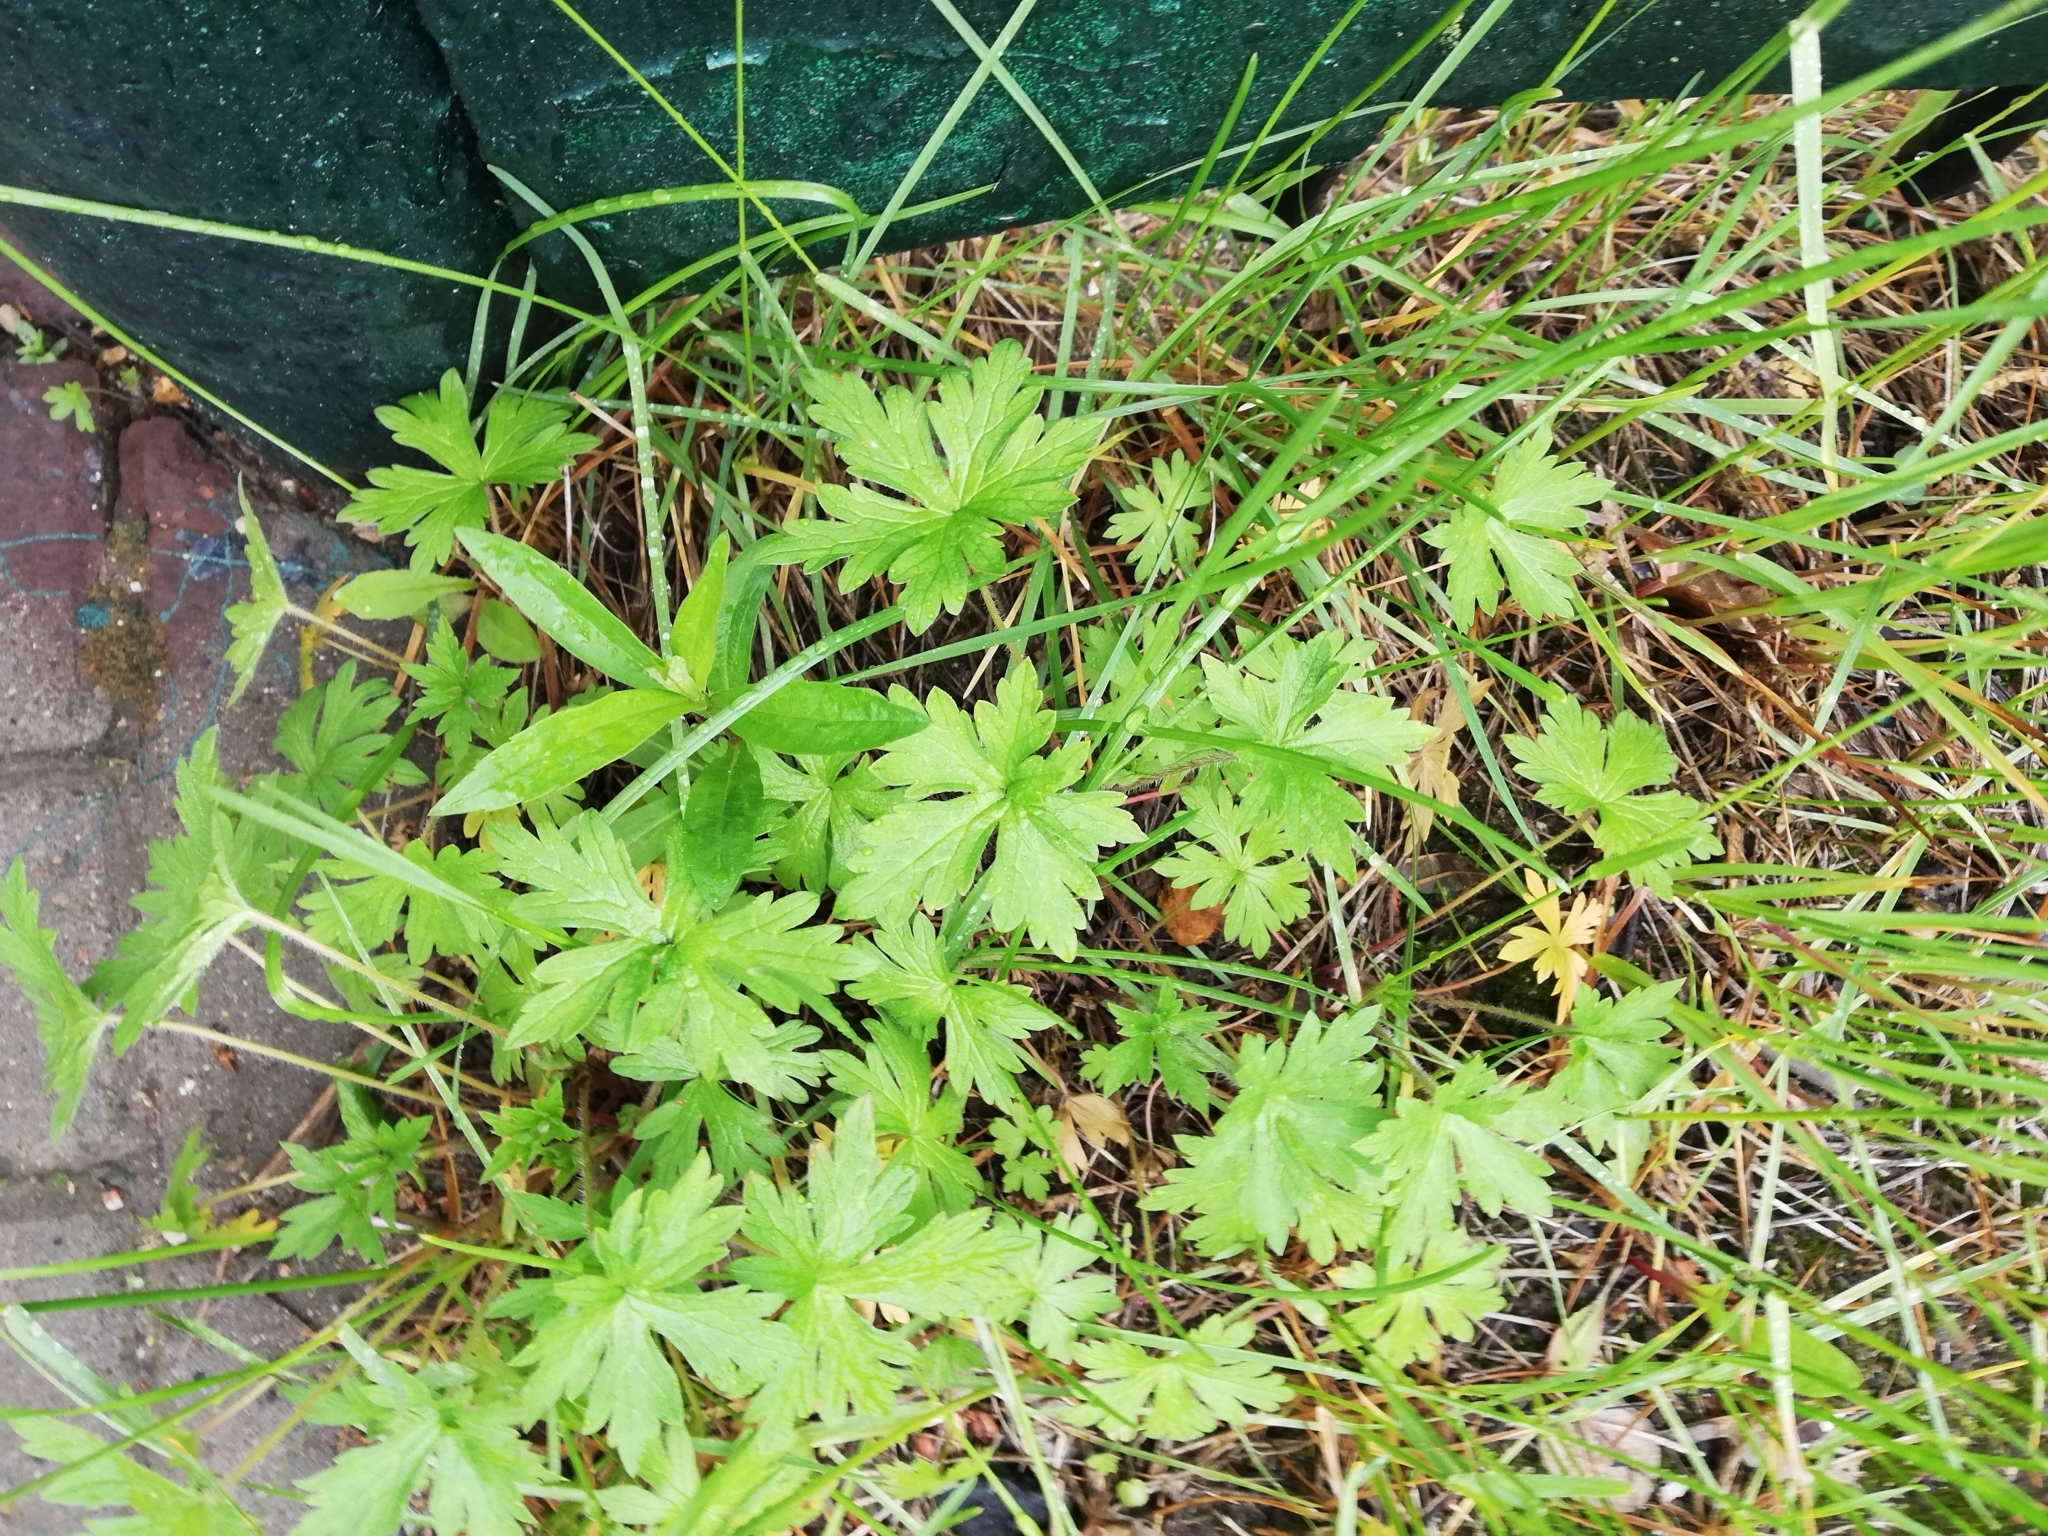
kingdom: Plantae
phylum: Tracheophyta
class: Magnoliopsida
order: Geraniales
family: Geraniaceae
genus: Geranium
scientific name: Geranium sibiricum
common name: Siberian crane's-bill
